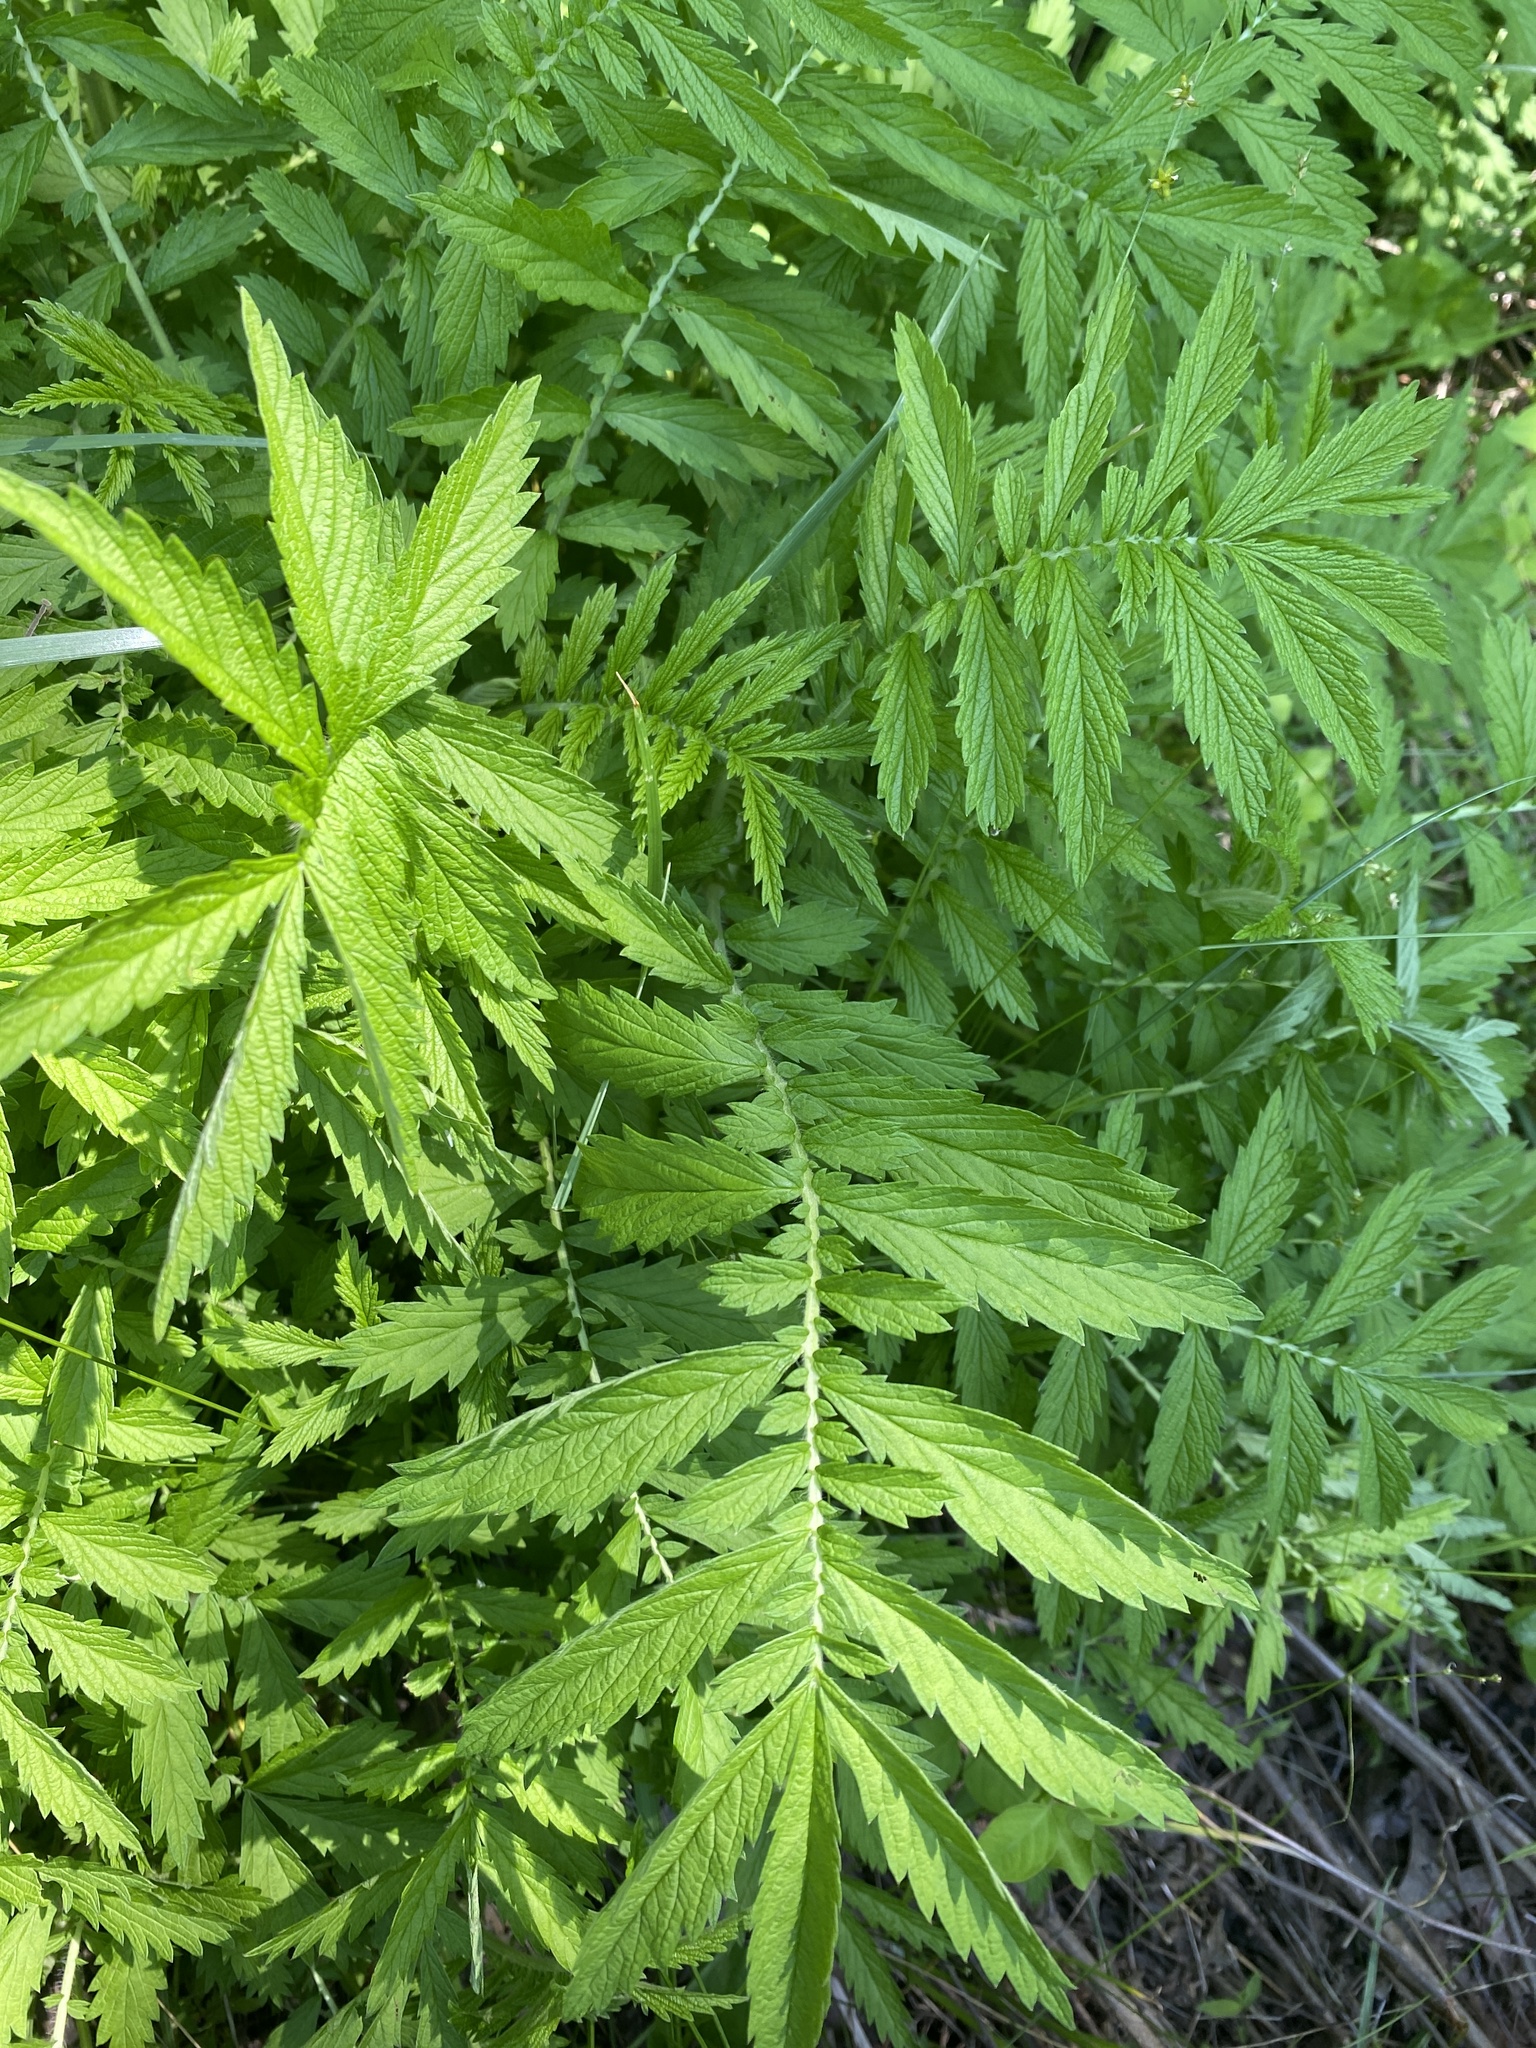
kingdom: Plantae
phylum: Tracheophyta
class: Magnoliopsida
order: Rosales
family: Rosaceae
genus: Agrimonia
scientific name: Agrimonia parviflora
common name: Harvest-lice
